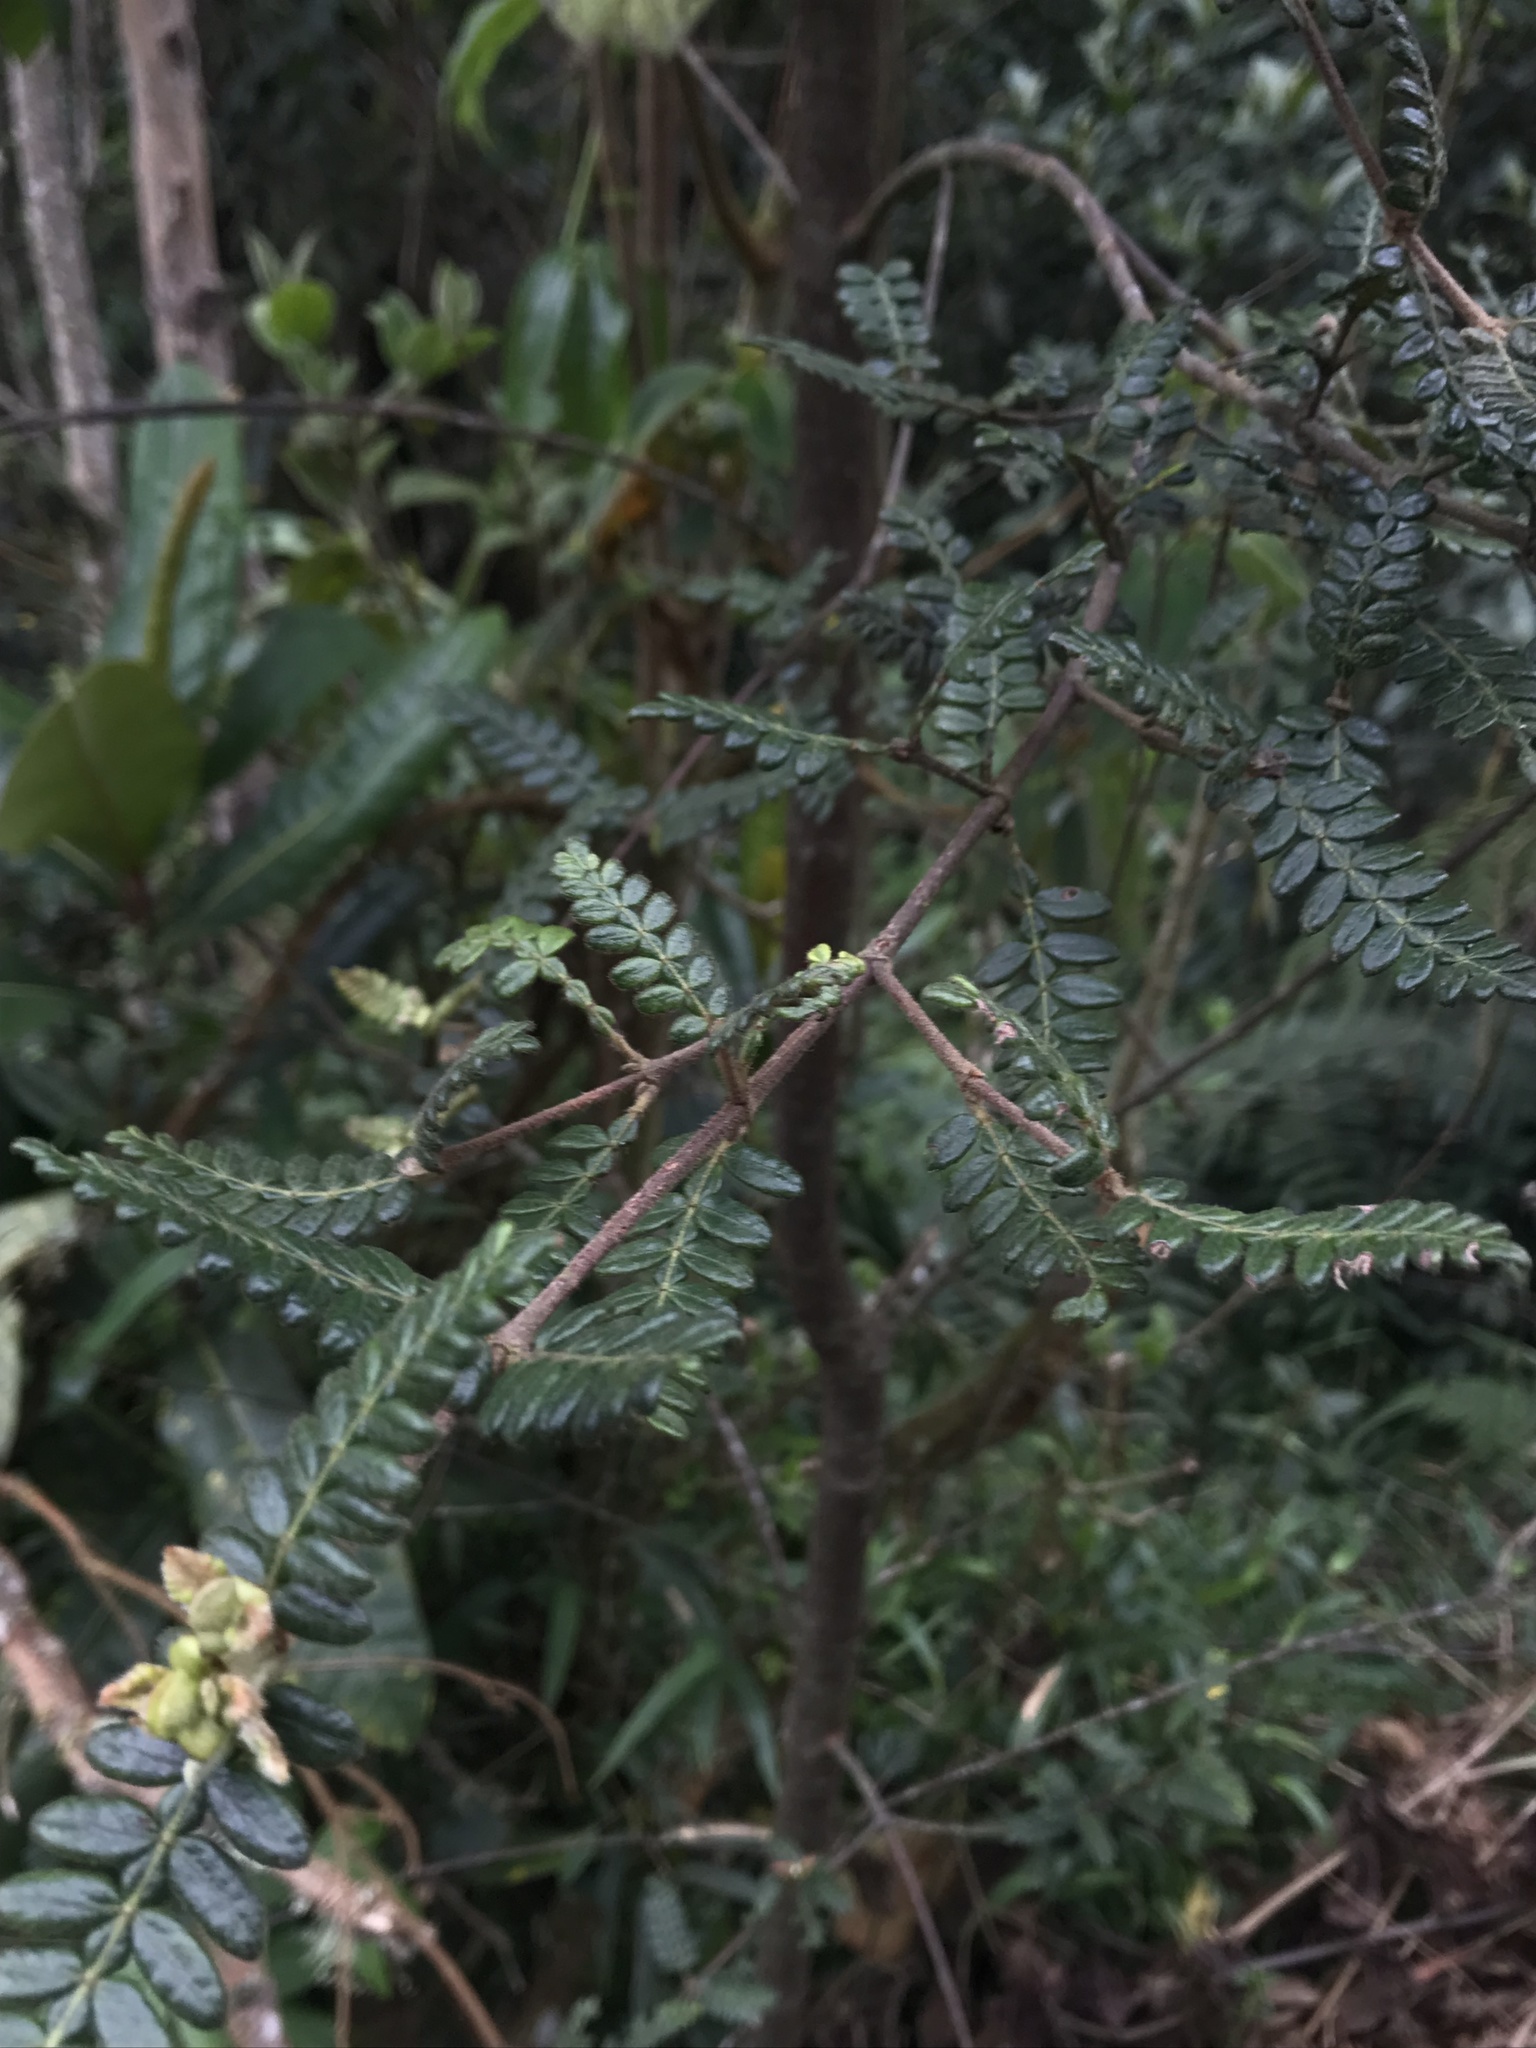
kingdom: Plantae
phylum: Tracheophyta
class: Magnoliopsida
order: Oxalidales
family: Cunoniaceae
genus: Weinmannia
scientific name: Weinmannia tomentosa
